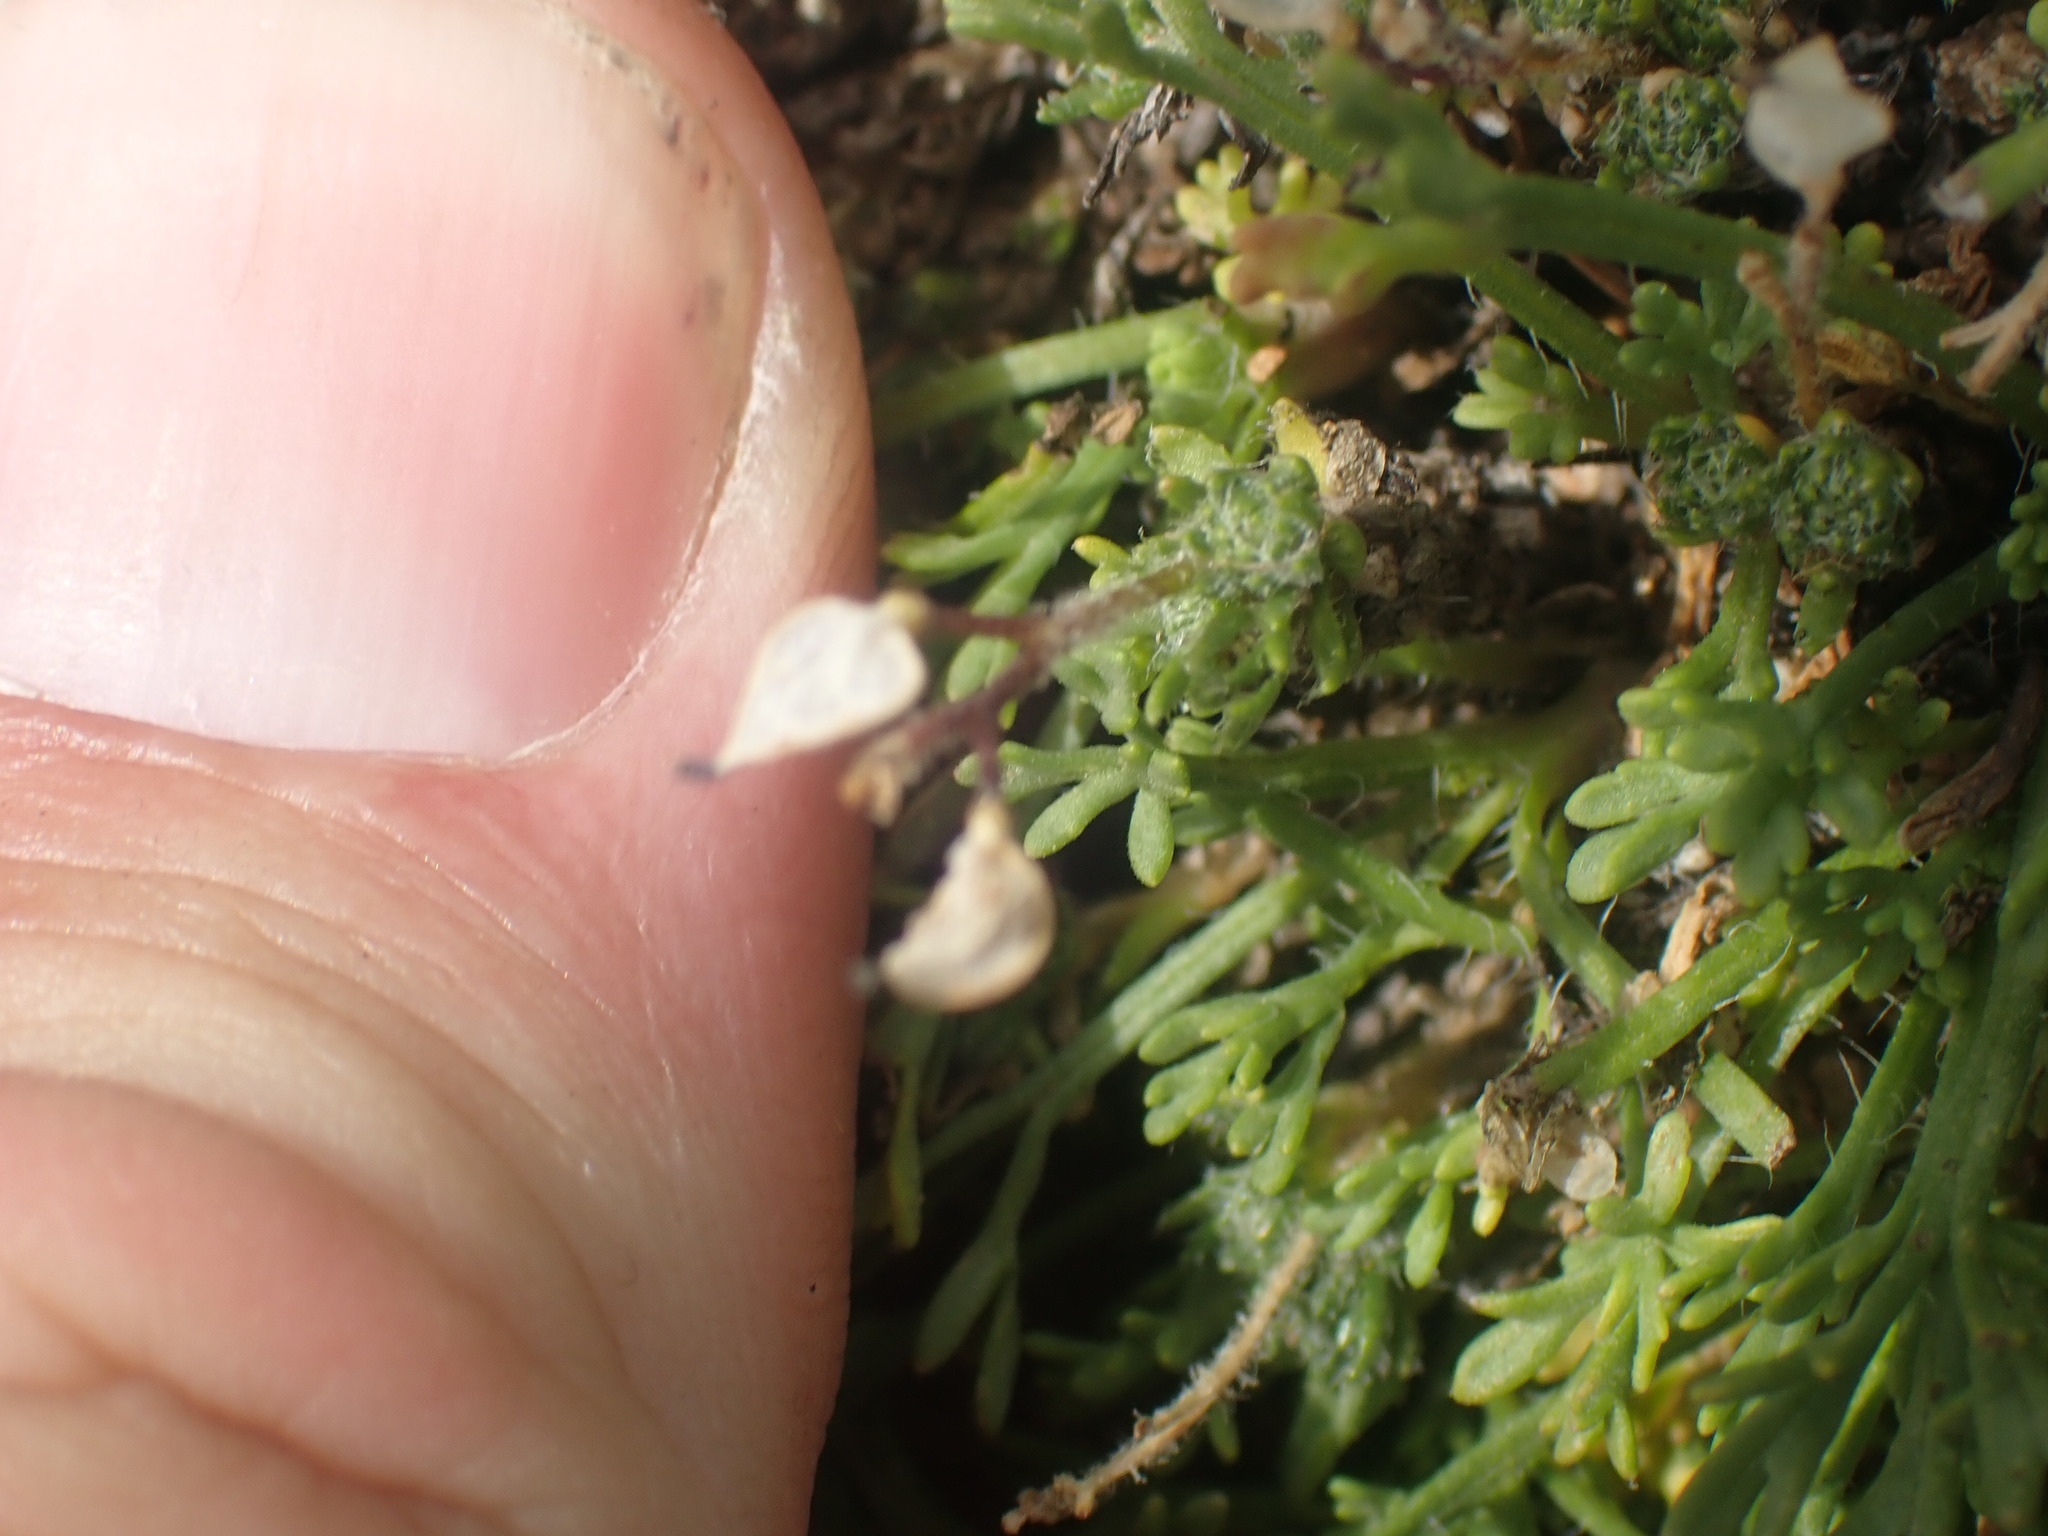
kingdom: Plantae
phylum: Tracheophyta
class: Magnoliopsida
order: Asterales
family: Asteraceae
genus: Erigeron
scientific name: Erigeron compositus
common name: Dwarf mountain fleabane
